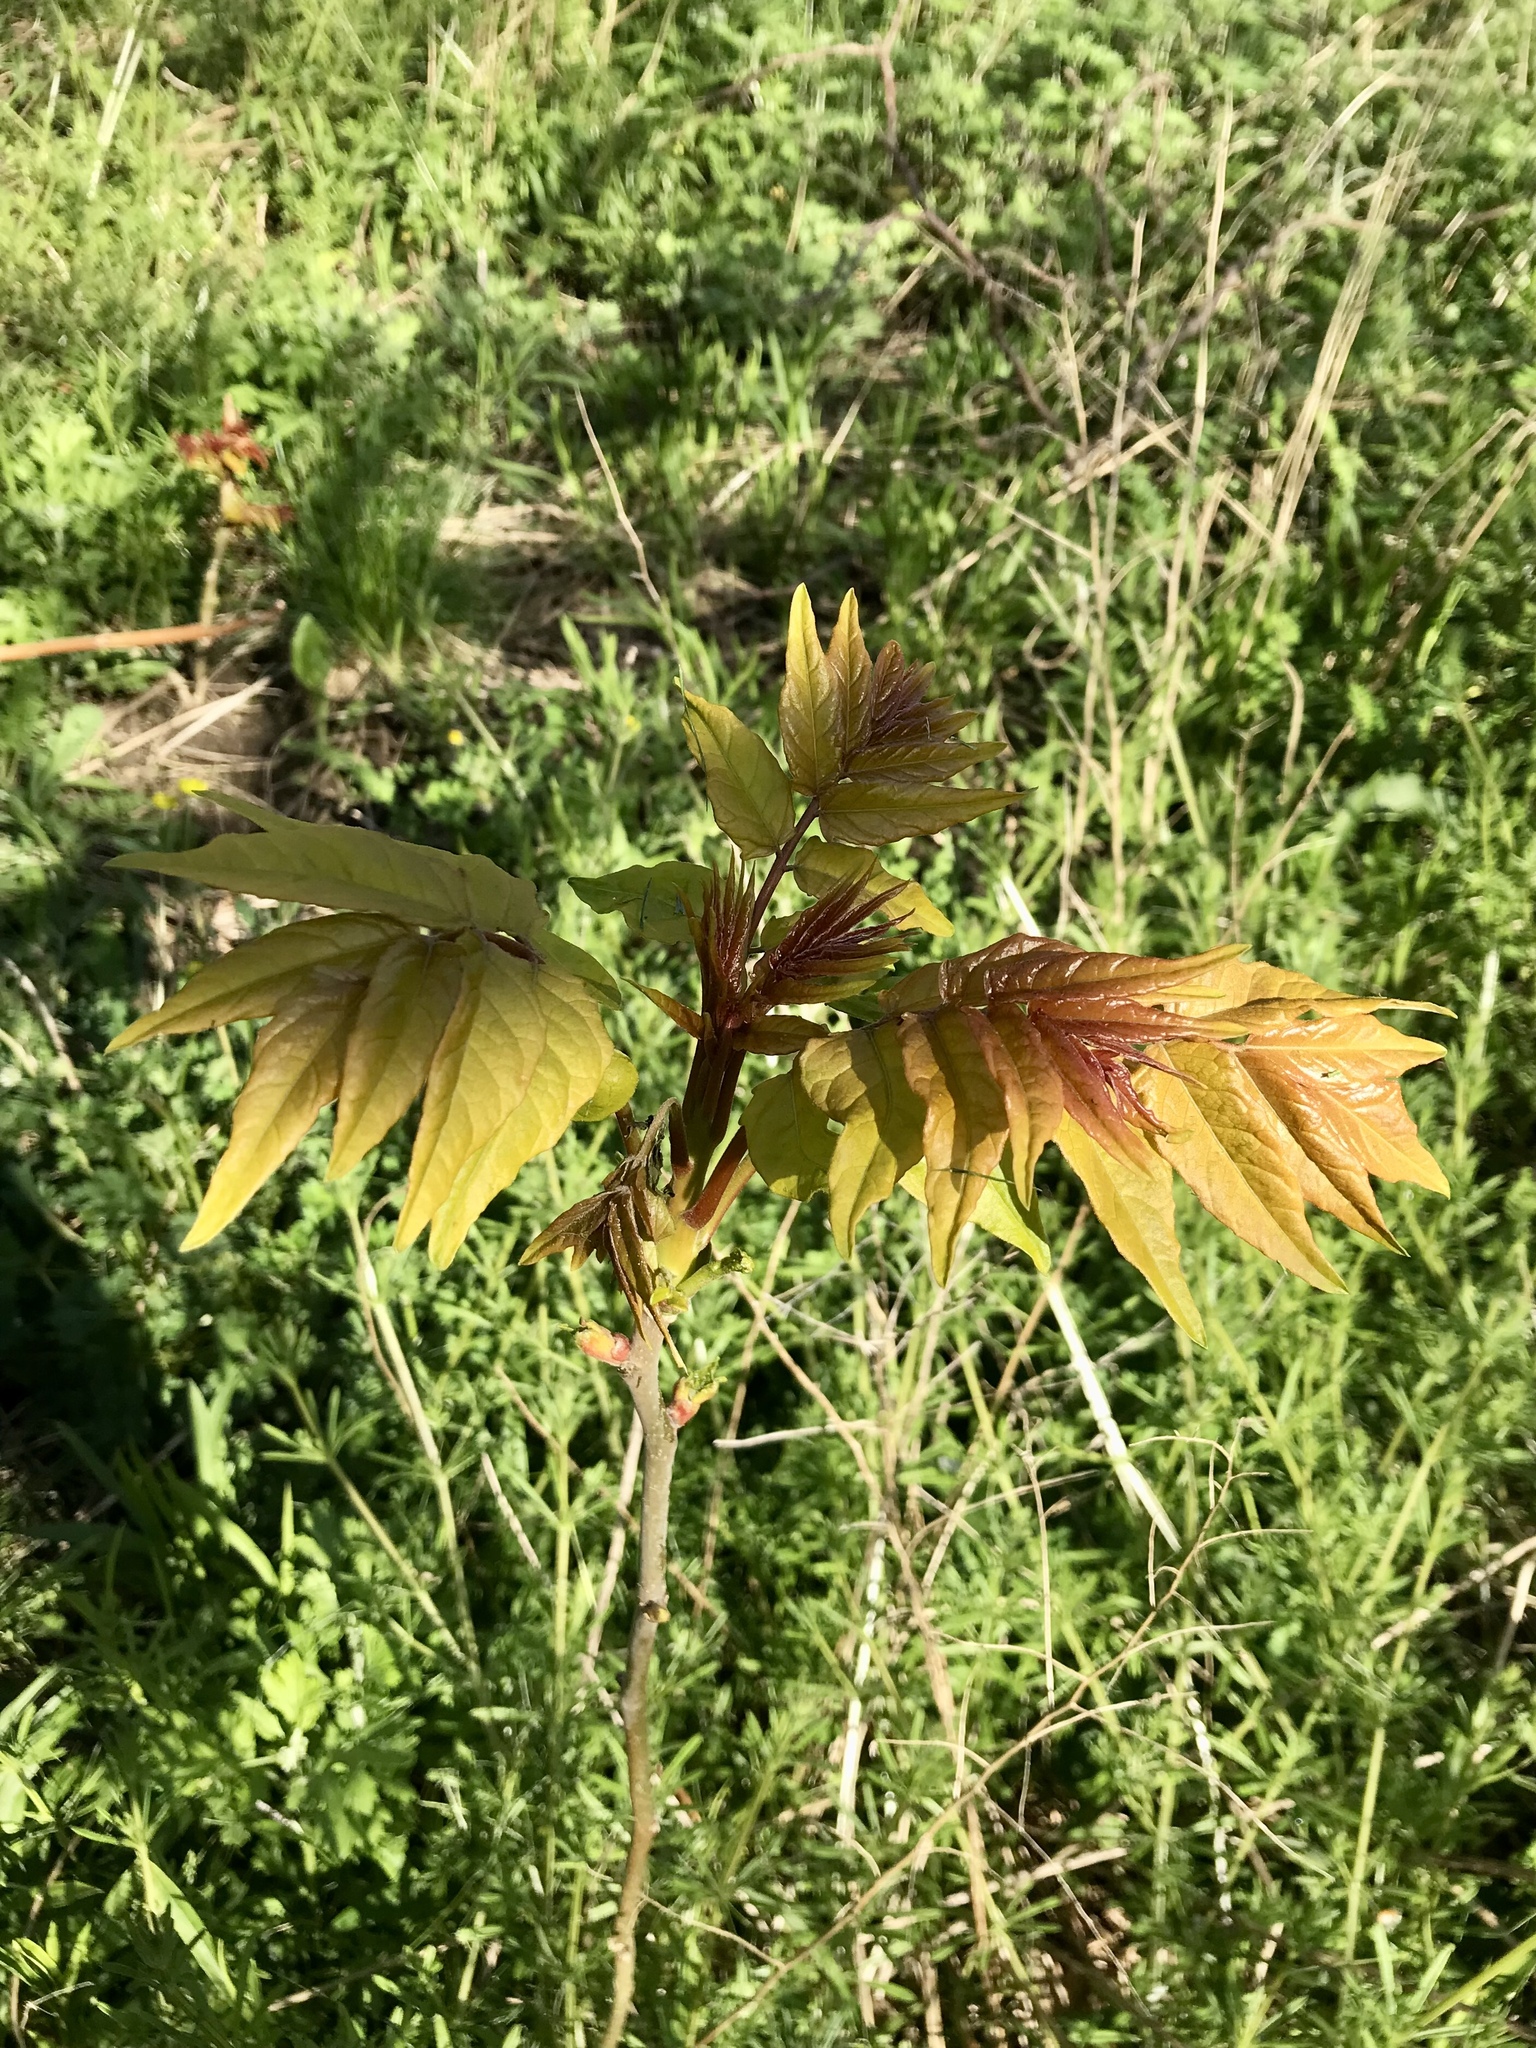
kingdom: Plantae
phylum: Tracheophyta
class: Magnoliopsida
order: Sapindales
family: Simaroubaceae
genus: Ailanthus
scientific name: Ailanthus altissima
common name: Tree-of-heaven
